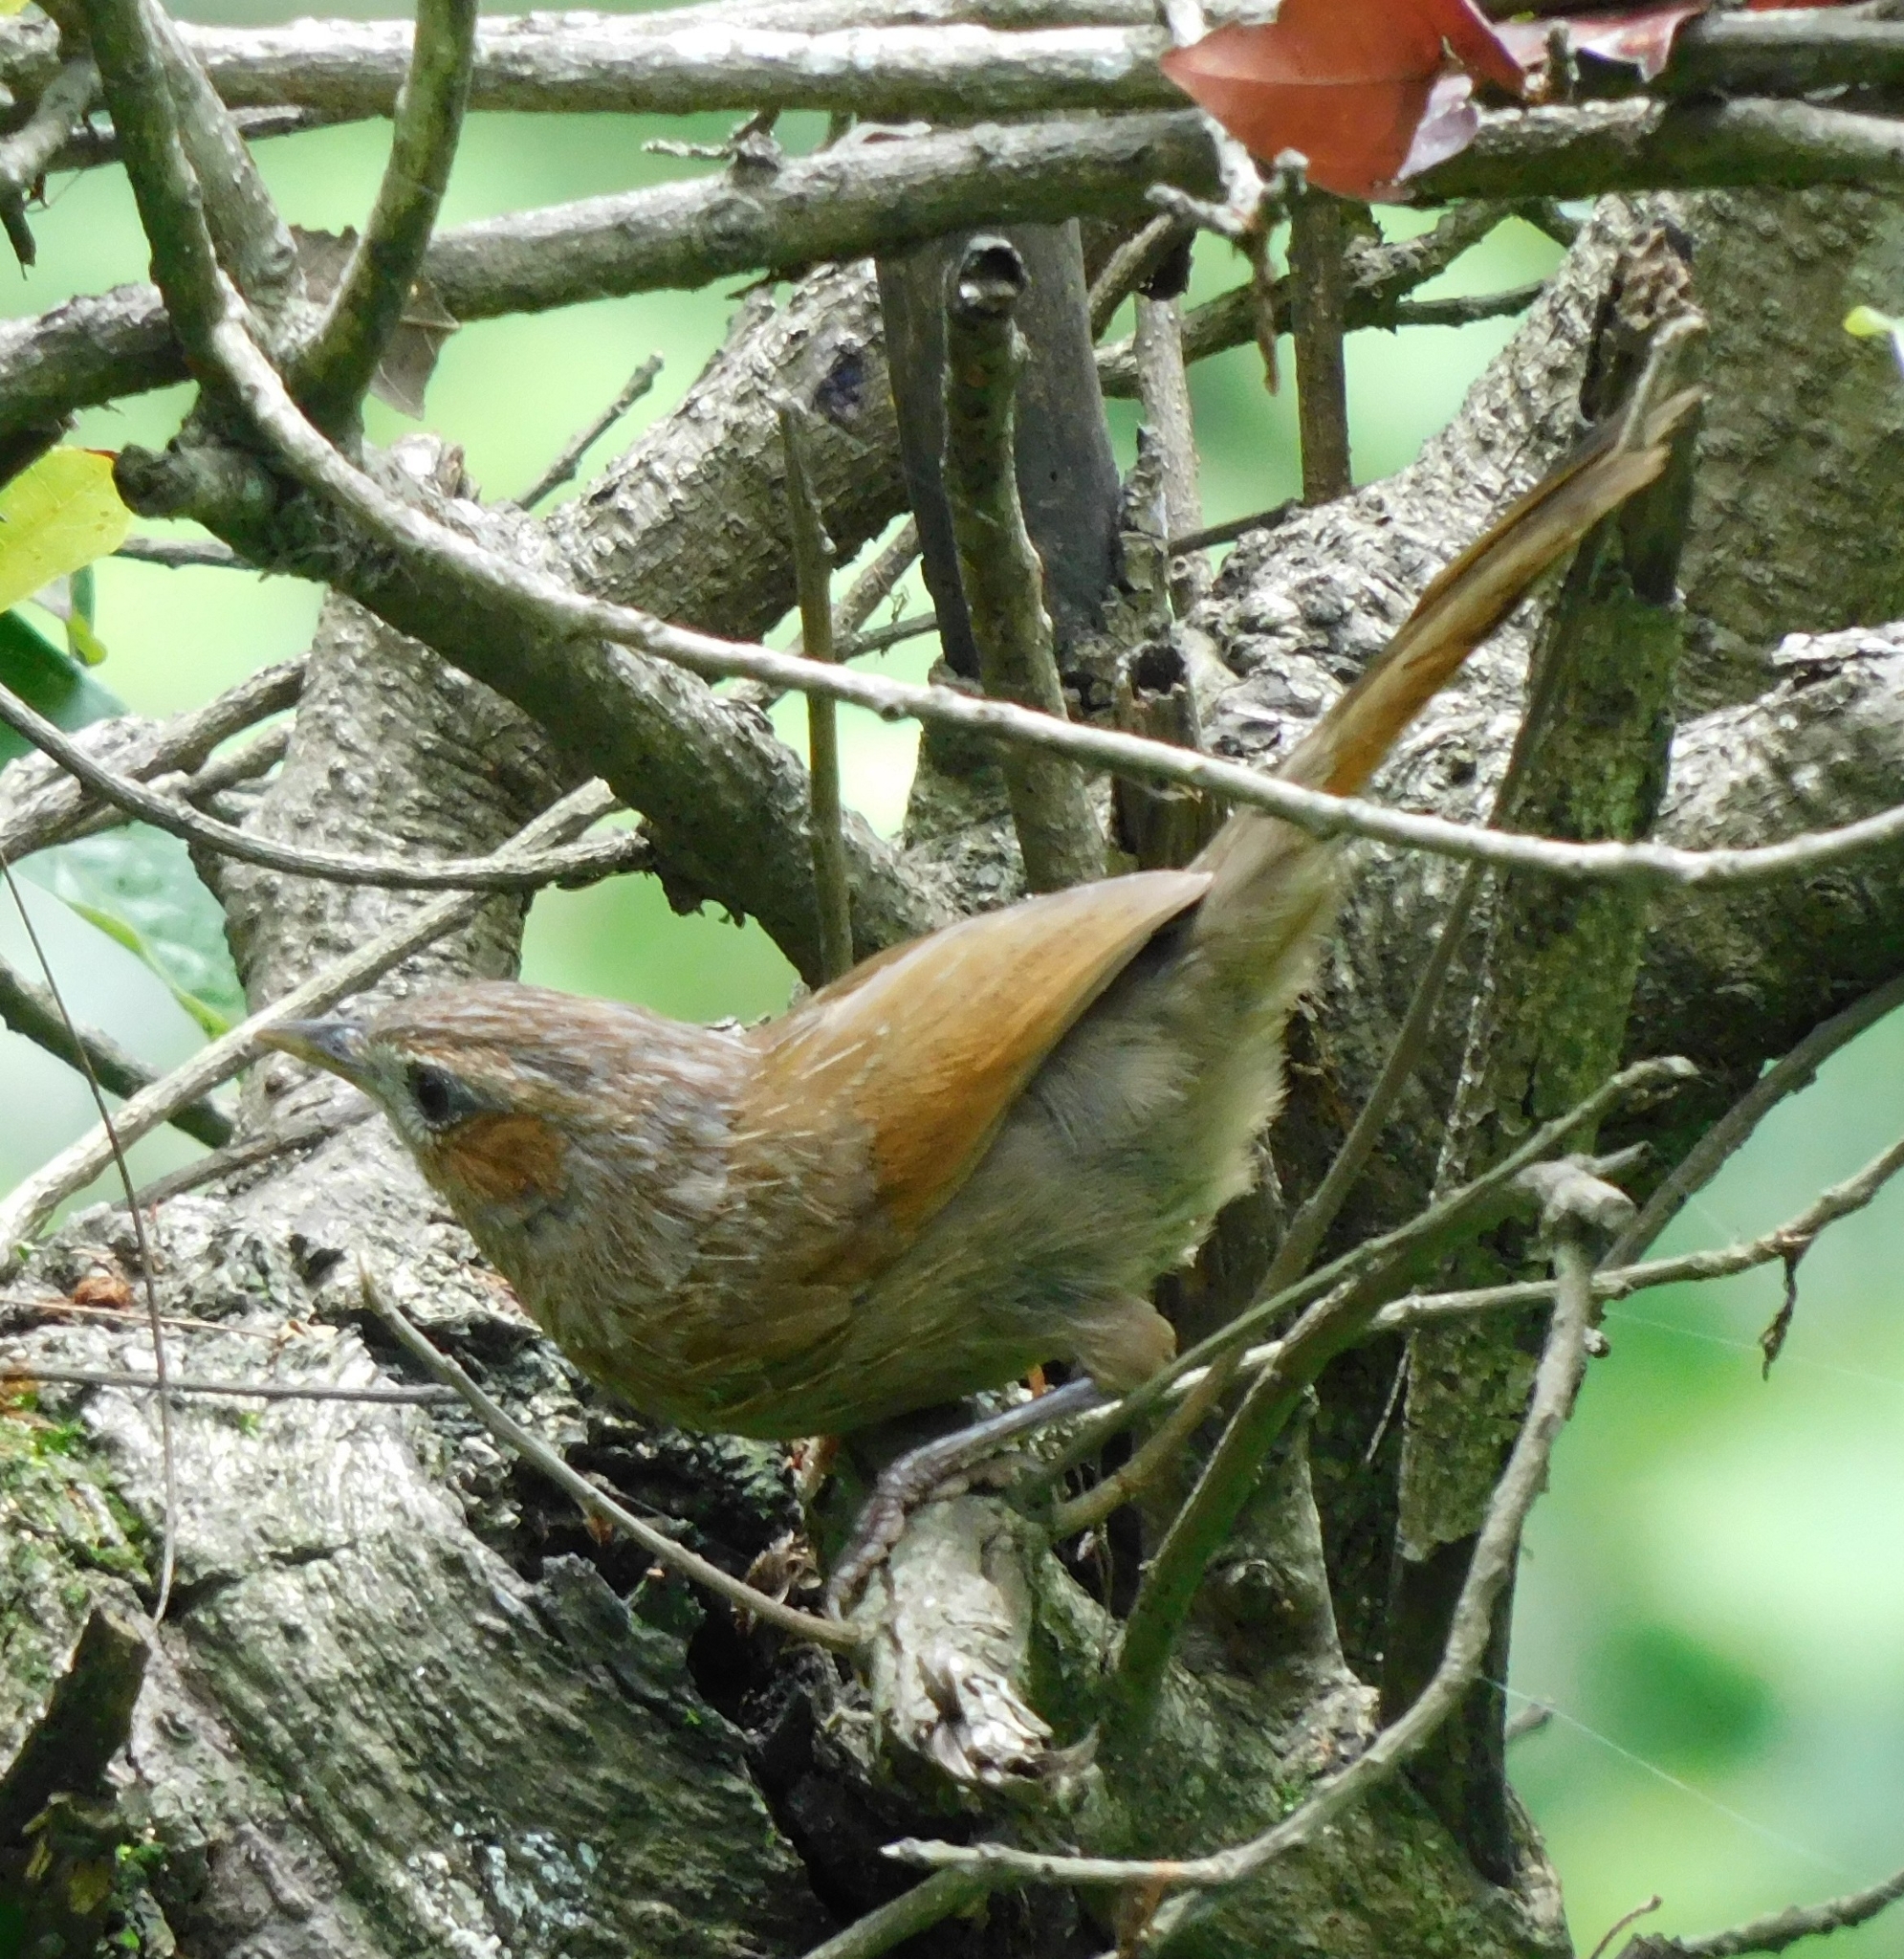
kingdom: Animalia
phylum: Chordata
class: Aves
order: Passeriformes
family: Leiothrichidae
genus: Trochalopteron
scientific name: Trochalopteron lineatum
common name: Streaked laughingthrush
